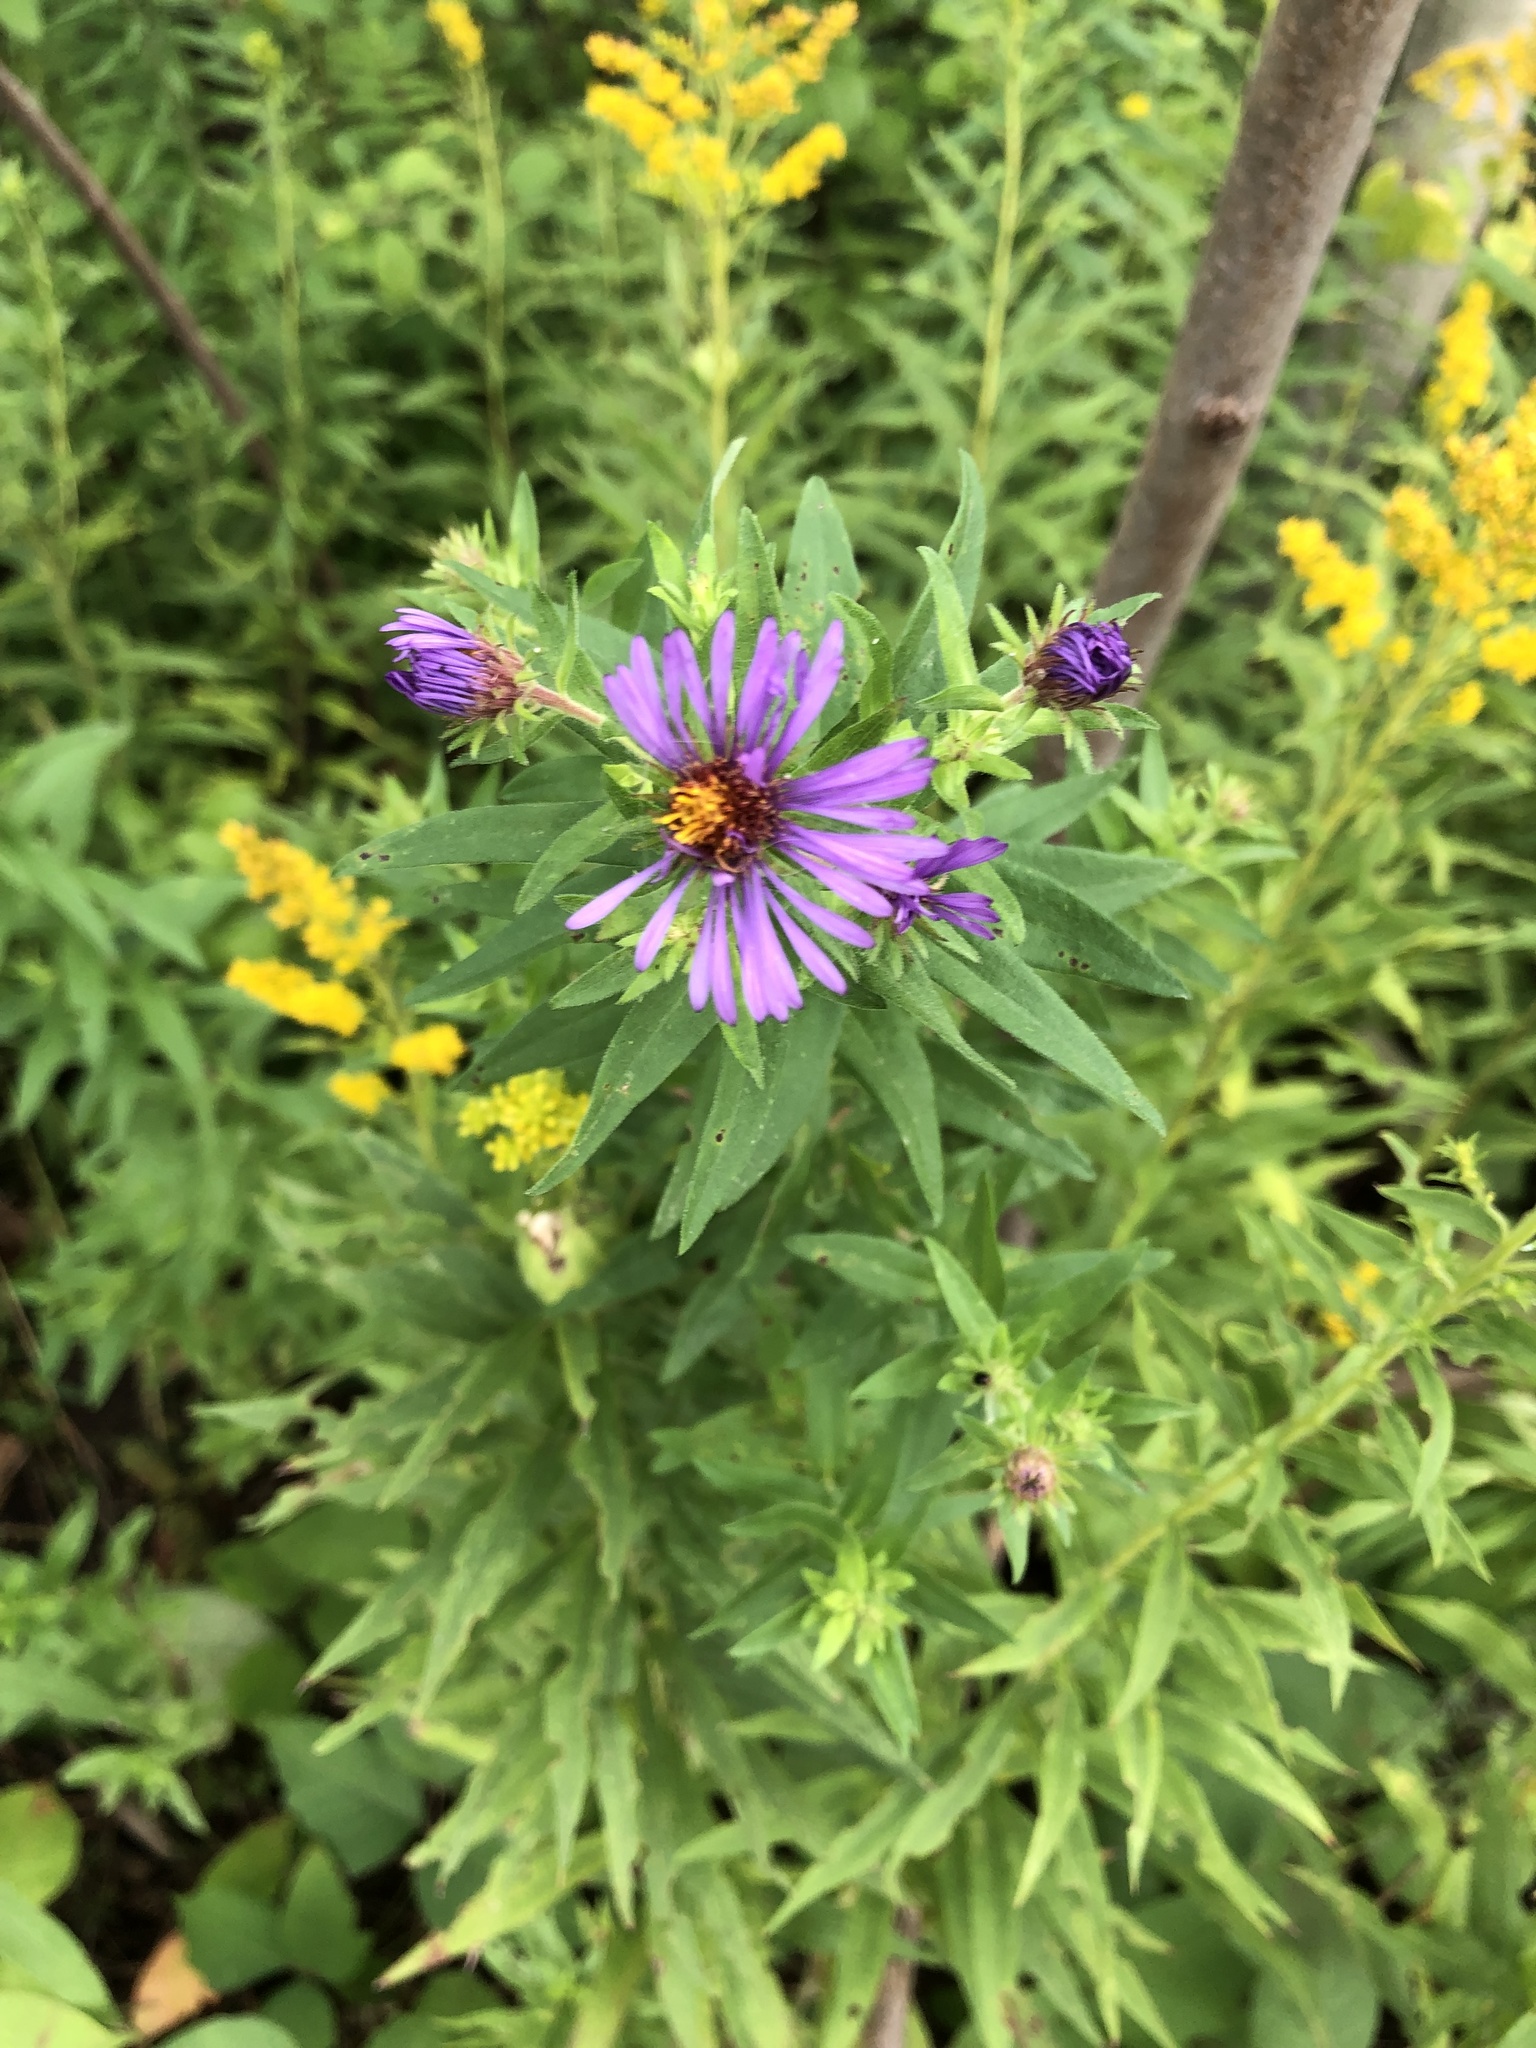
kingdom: Plantae
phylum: Tracheophyta
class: Magnoliopsida
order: Asterales
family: Asteraceae
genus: Symphyotrichum
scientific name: Symphyotrichum novae-angliae
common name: Michaelmas daisy
